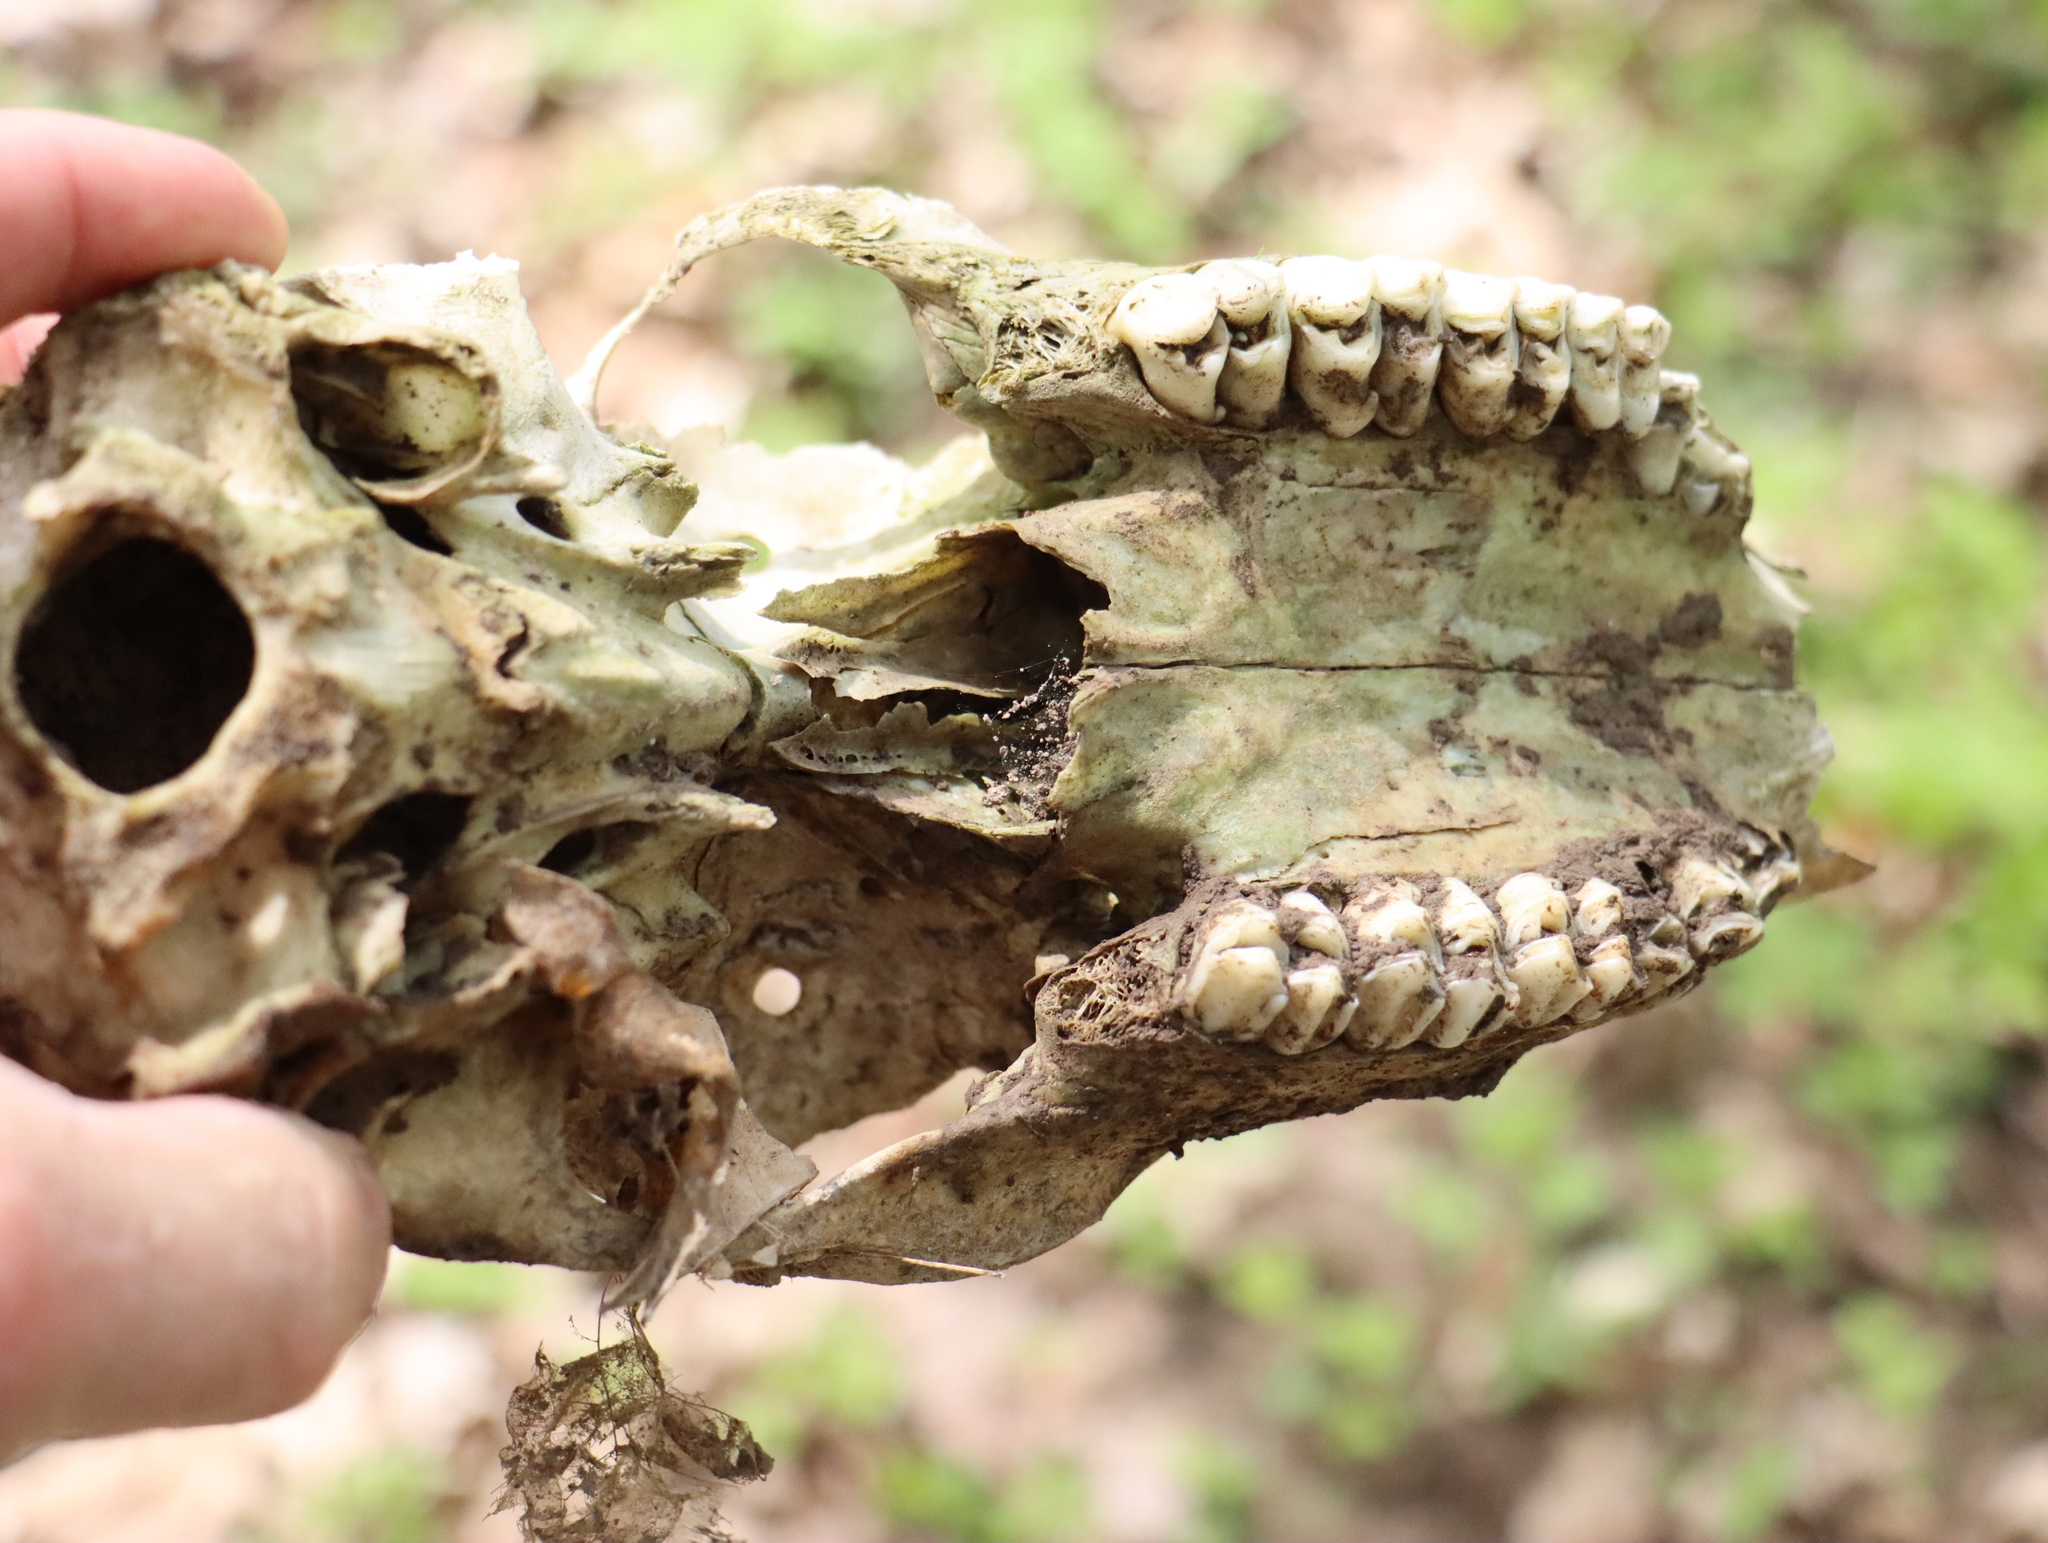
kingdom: Animalia
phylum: Chordata
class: Mammalia
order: Artiodactyla
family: Cervidae
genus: Odocoileus
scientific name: Odocoileus virginianus
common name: White-tailed deer
